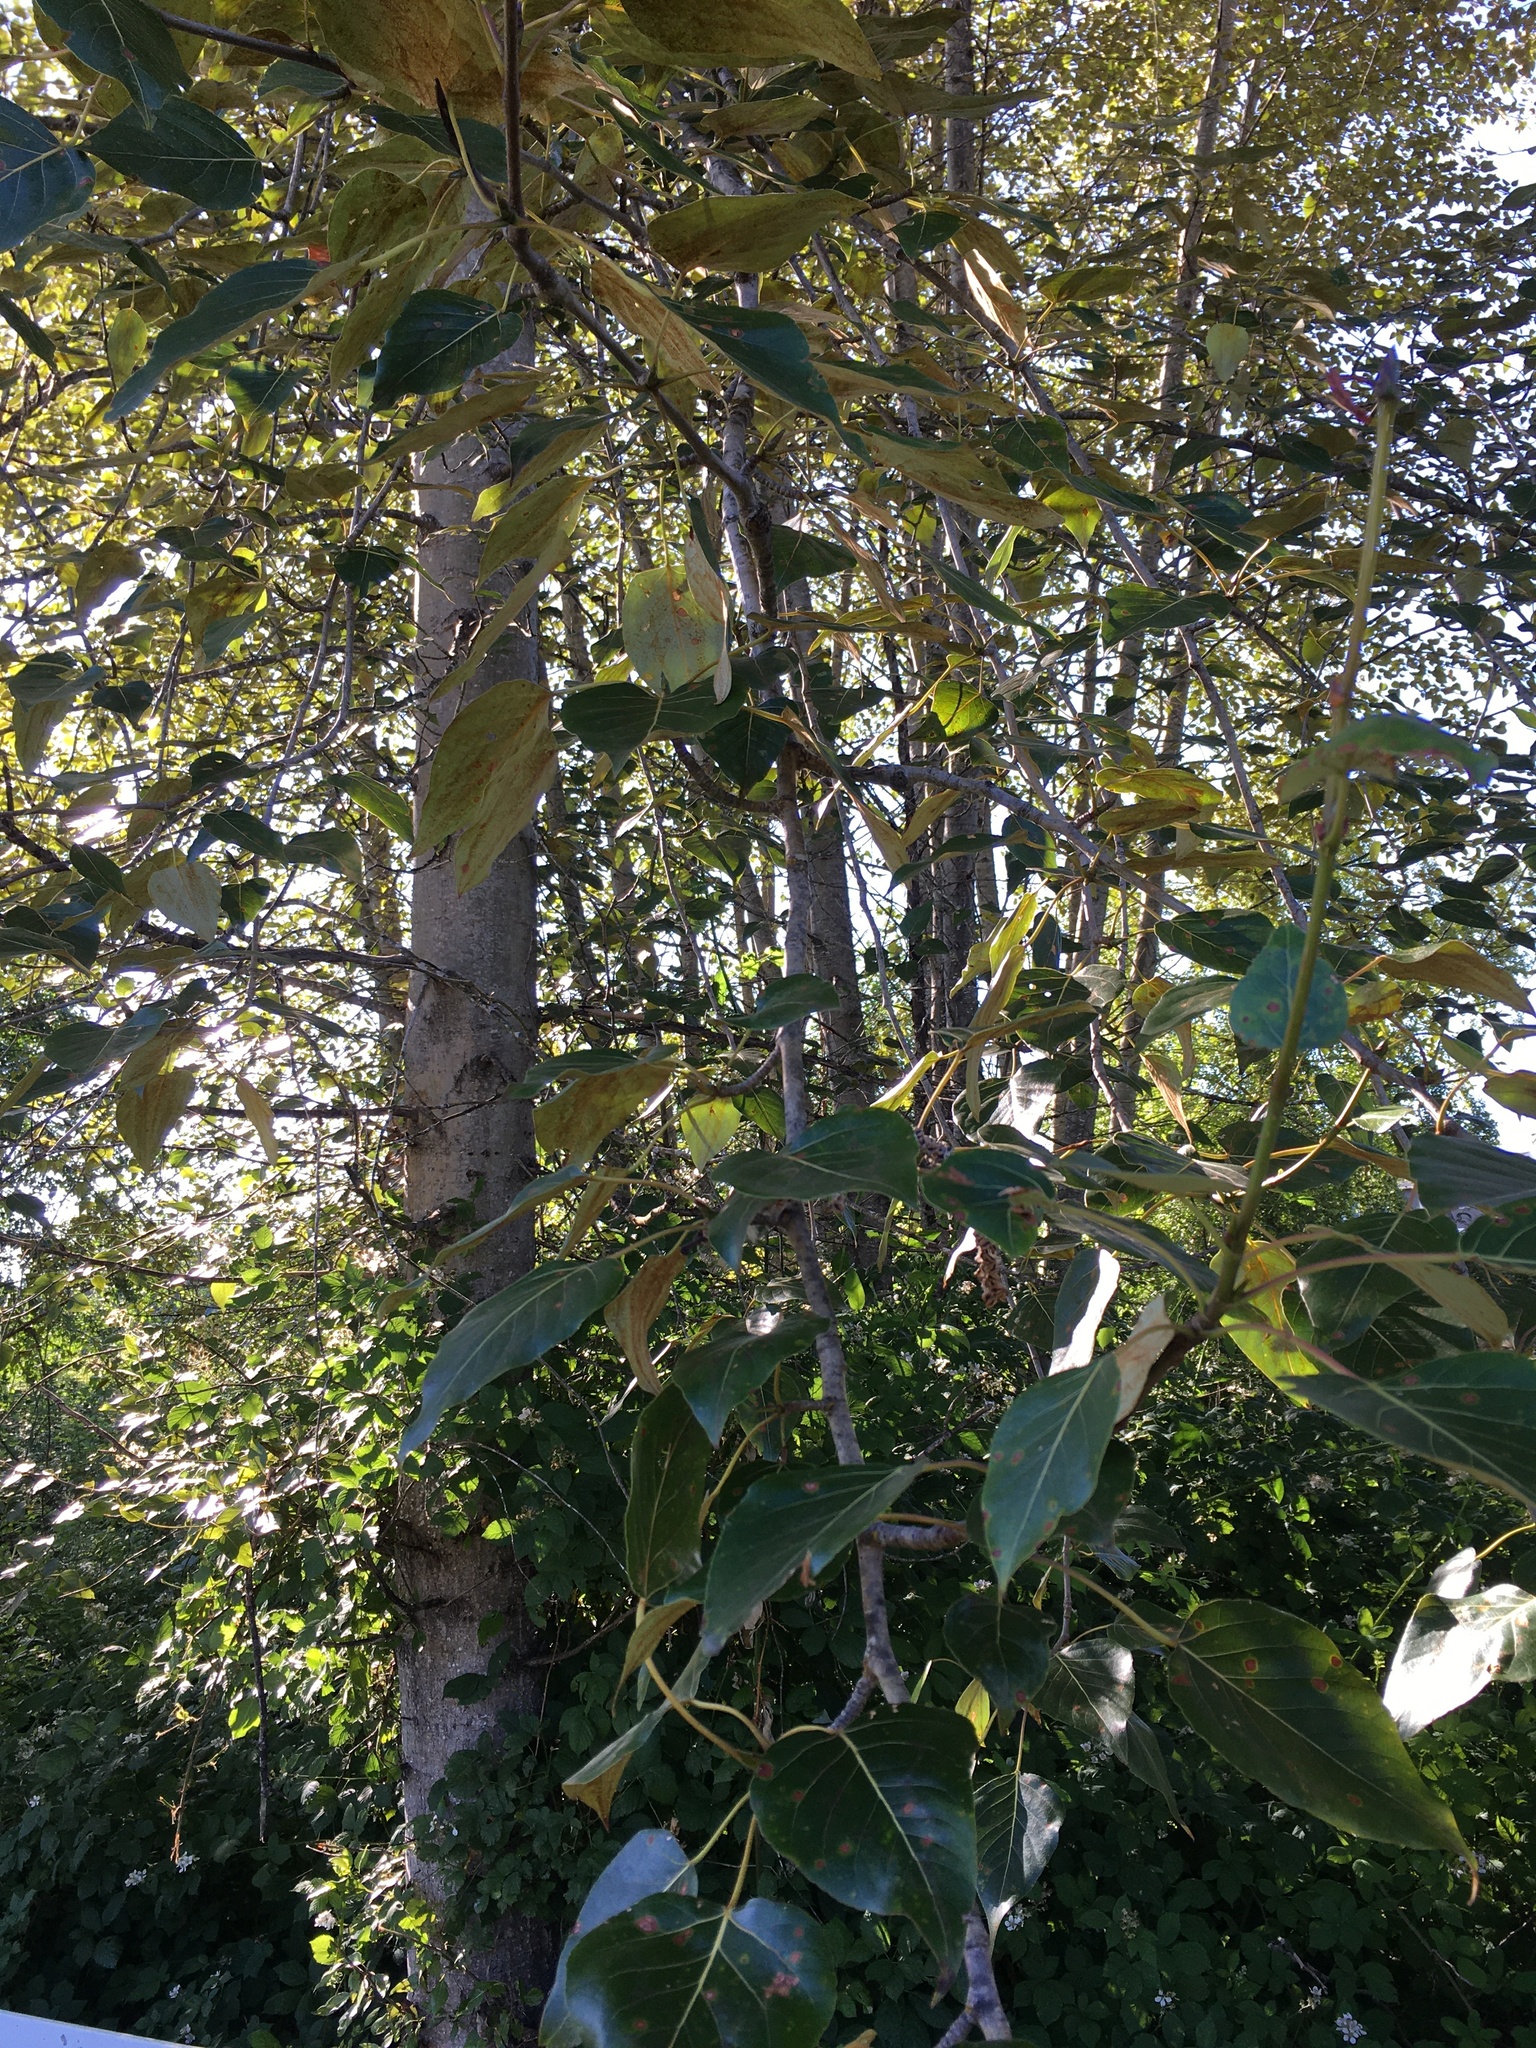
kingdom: Plantae
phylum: Tracheophyta
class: Magnoliopsida
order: Malpighiales
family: Salicaceae
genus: Populus
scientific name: Populus trichocarpa
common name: Black cottonwood
